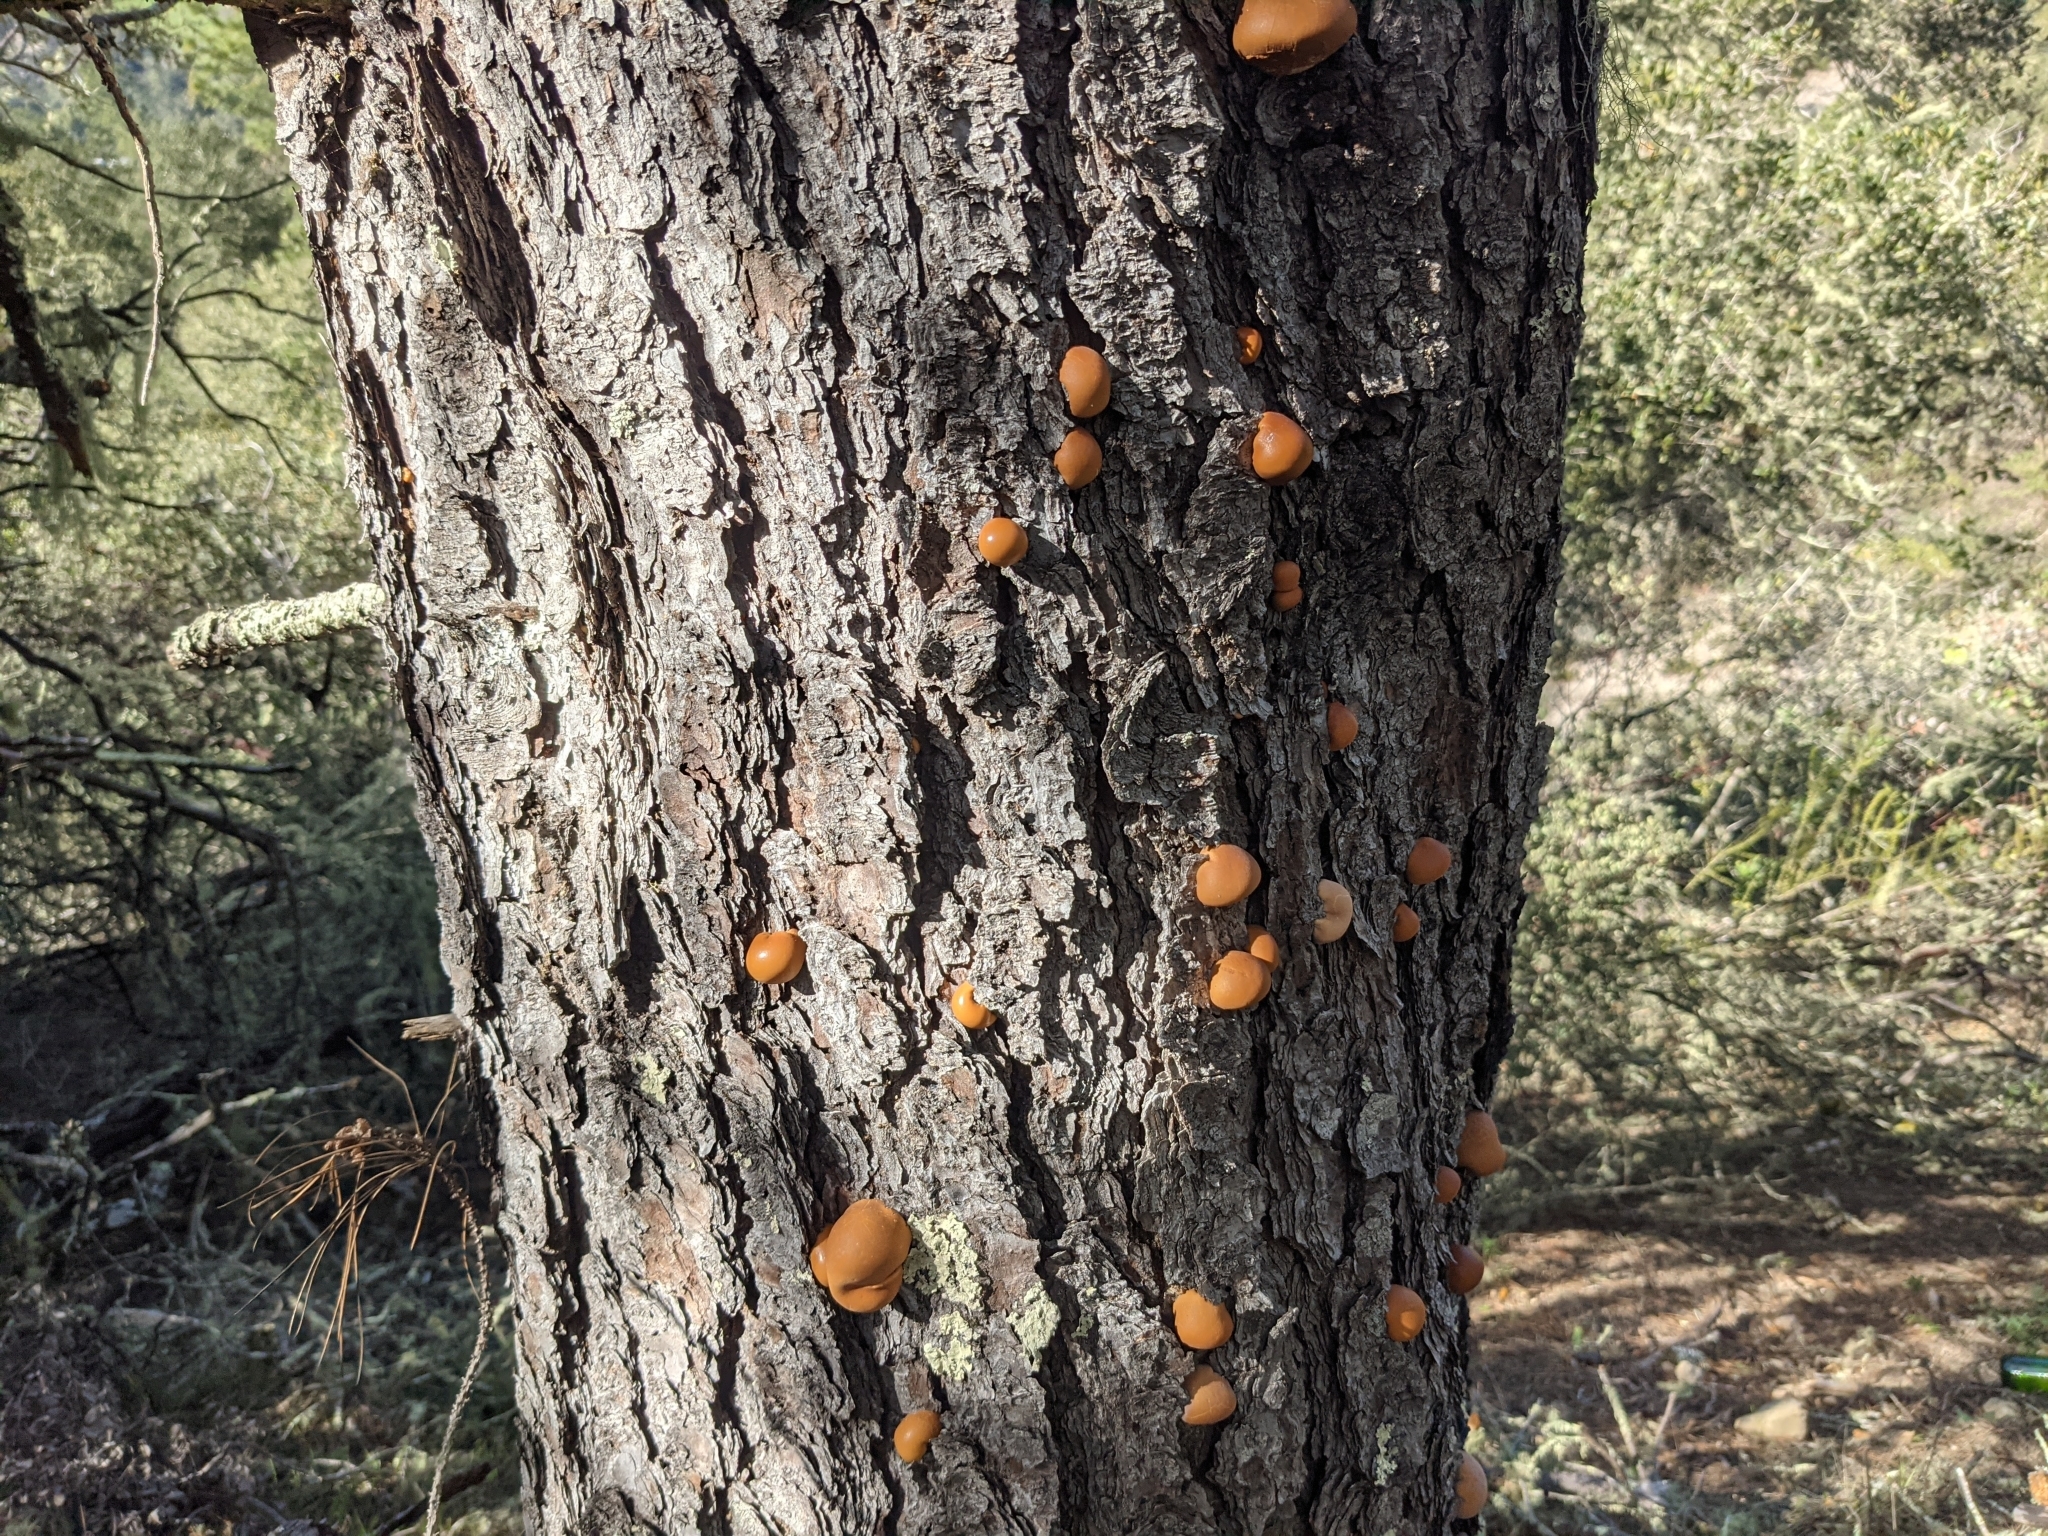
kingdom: Fungi
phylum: Basidiomycota
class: Agaricomycetes
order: Polyporales
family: Polyporaceae
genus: Cryptoporus
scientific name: Cryptoporus volvatus
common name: Veiled polypore
